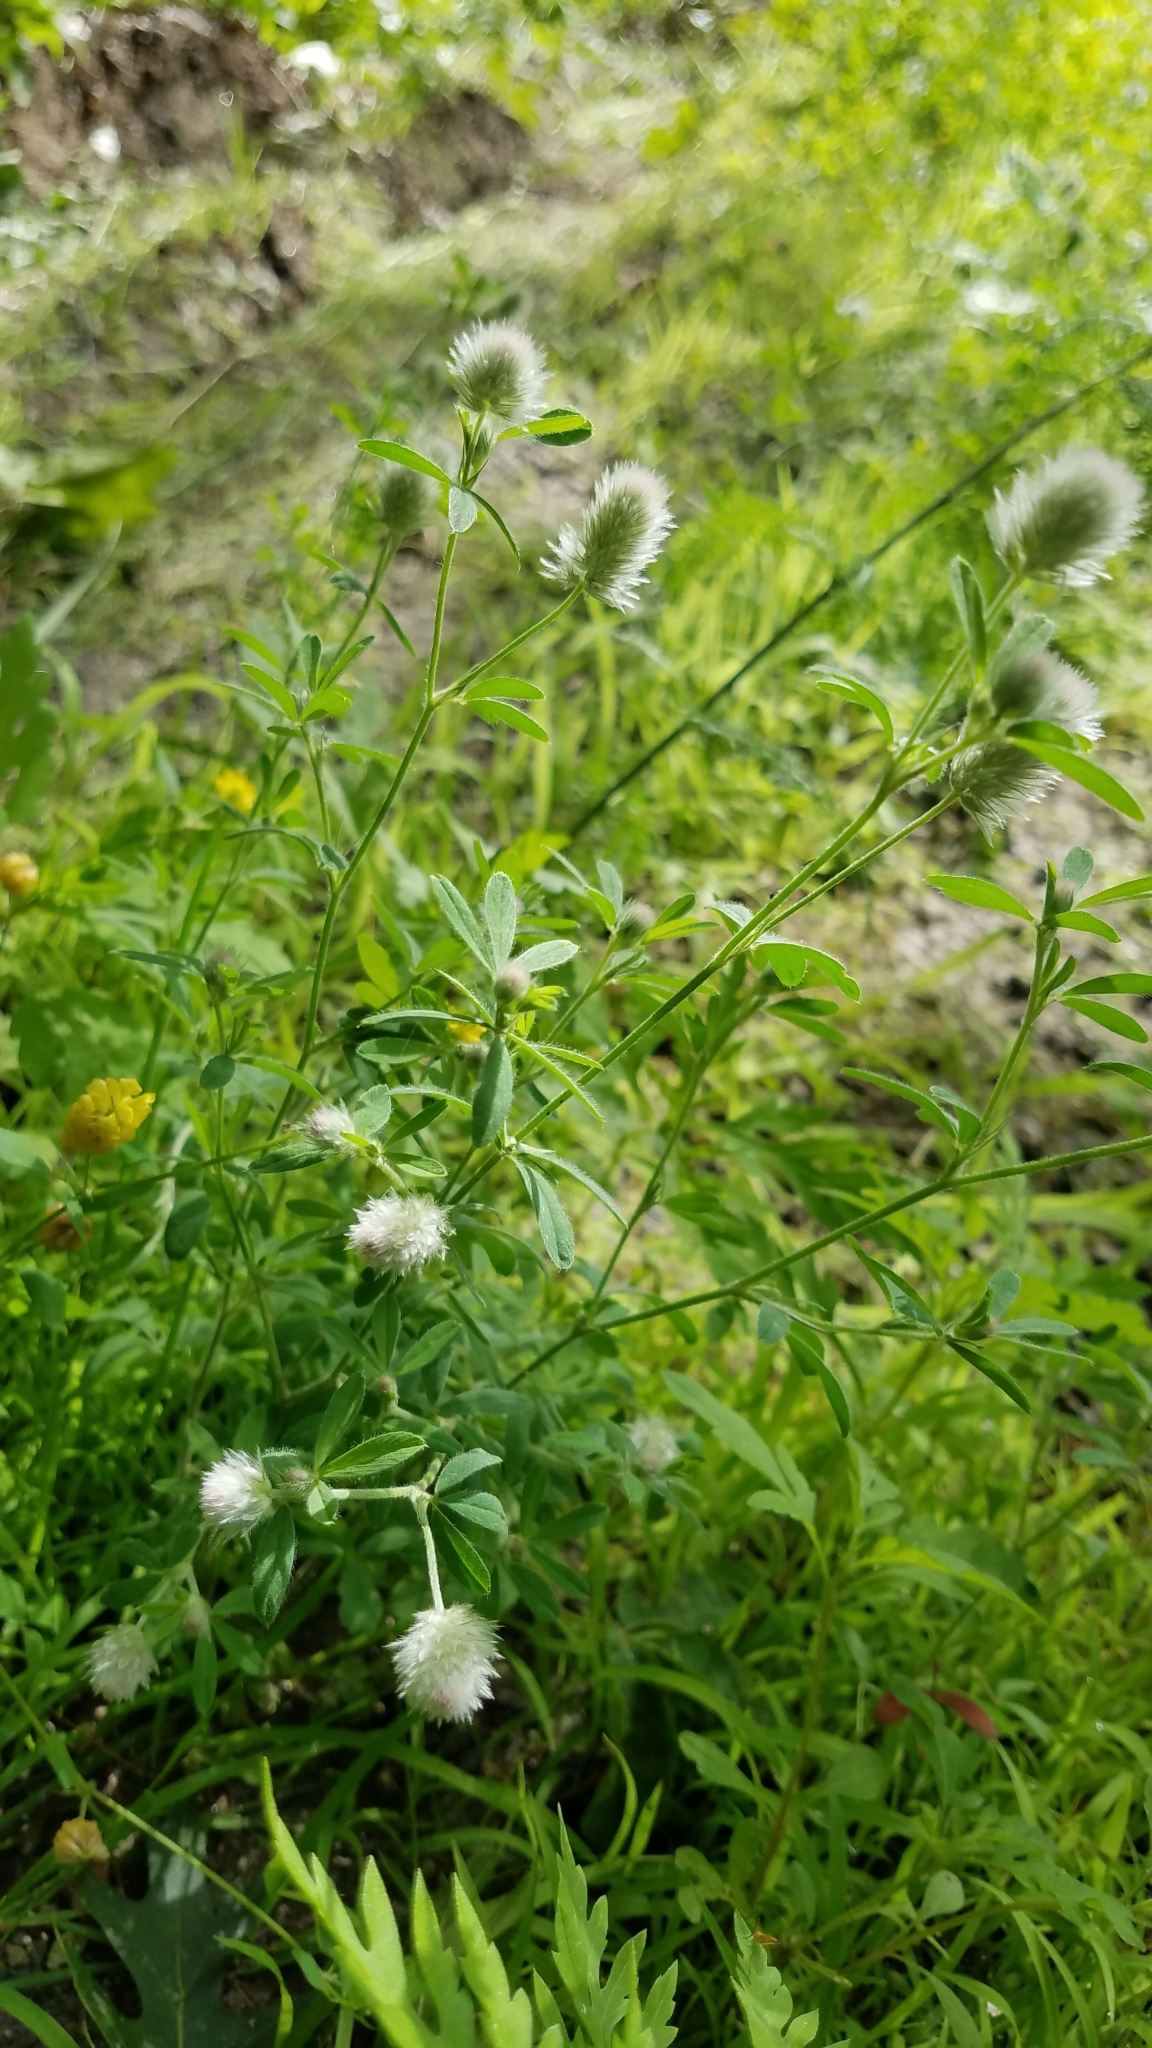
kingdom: Plantae
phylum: Tracheophyta
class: Magnoliopsida
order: Fabales
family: Fabaceae
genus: Trifolium
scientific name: Trifolium arvense
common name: Hare's-foot clover
